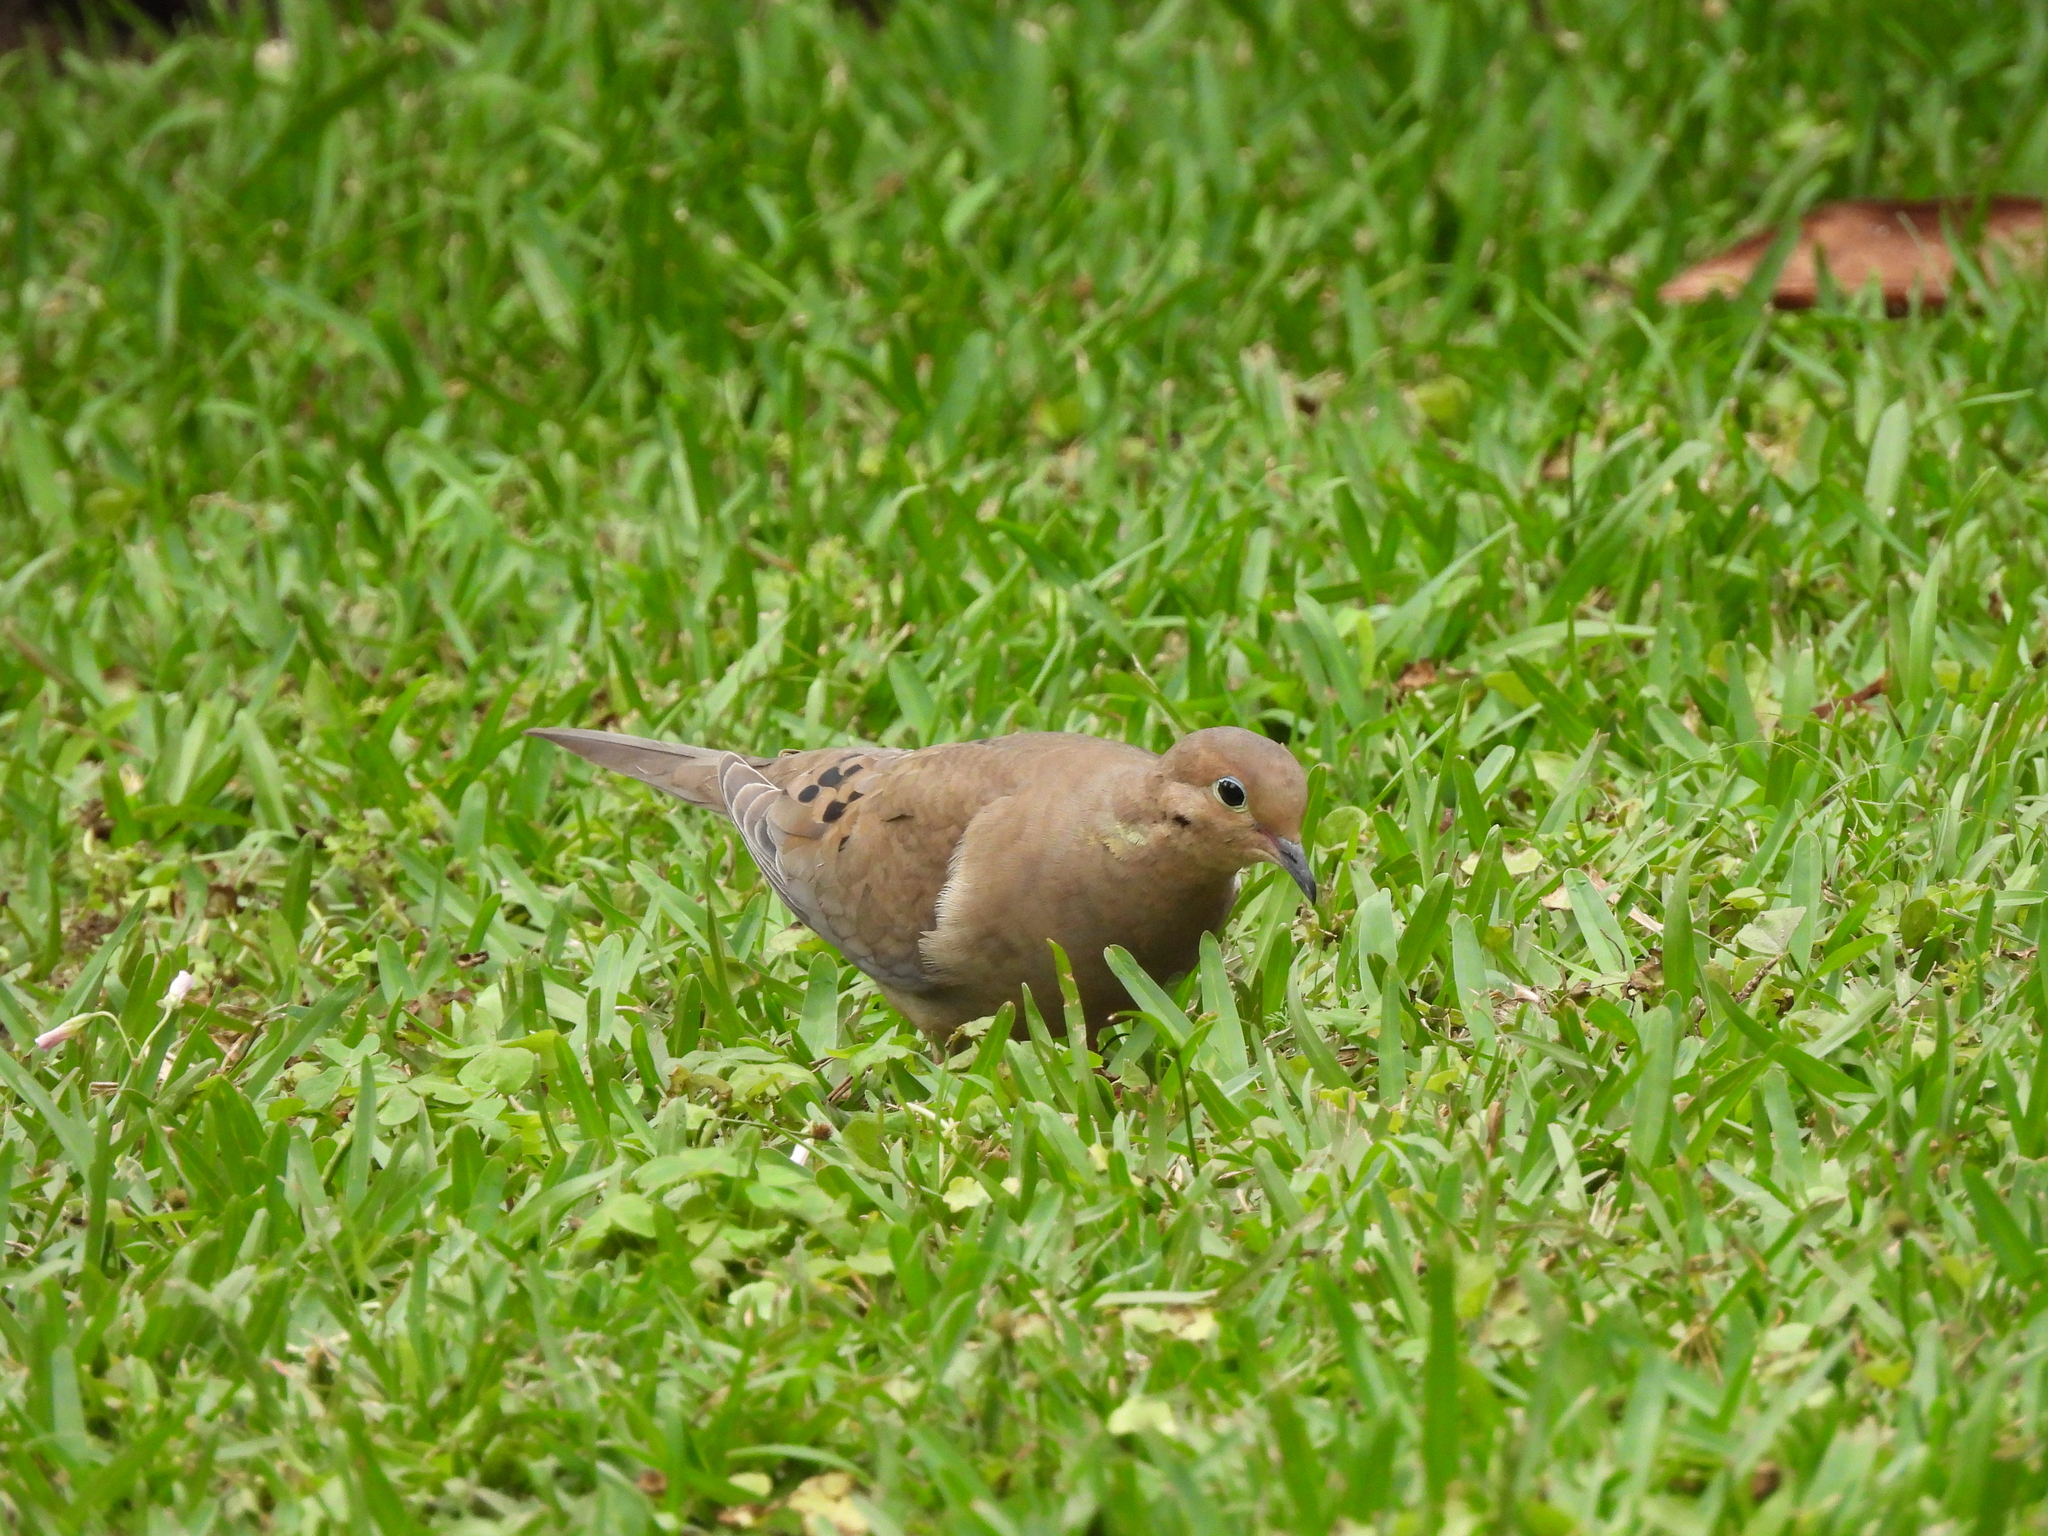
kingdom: Animalia
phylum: Chordata
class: Aves
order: Columbiformes
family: Columbidae
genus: Zenaida
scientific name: Zenaida macroura
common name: Mourning dove
